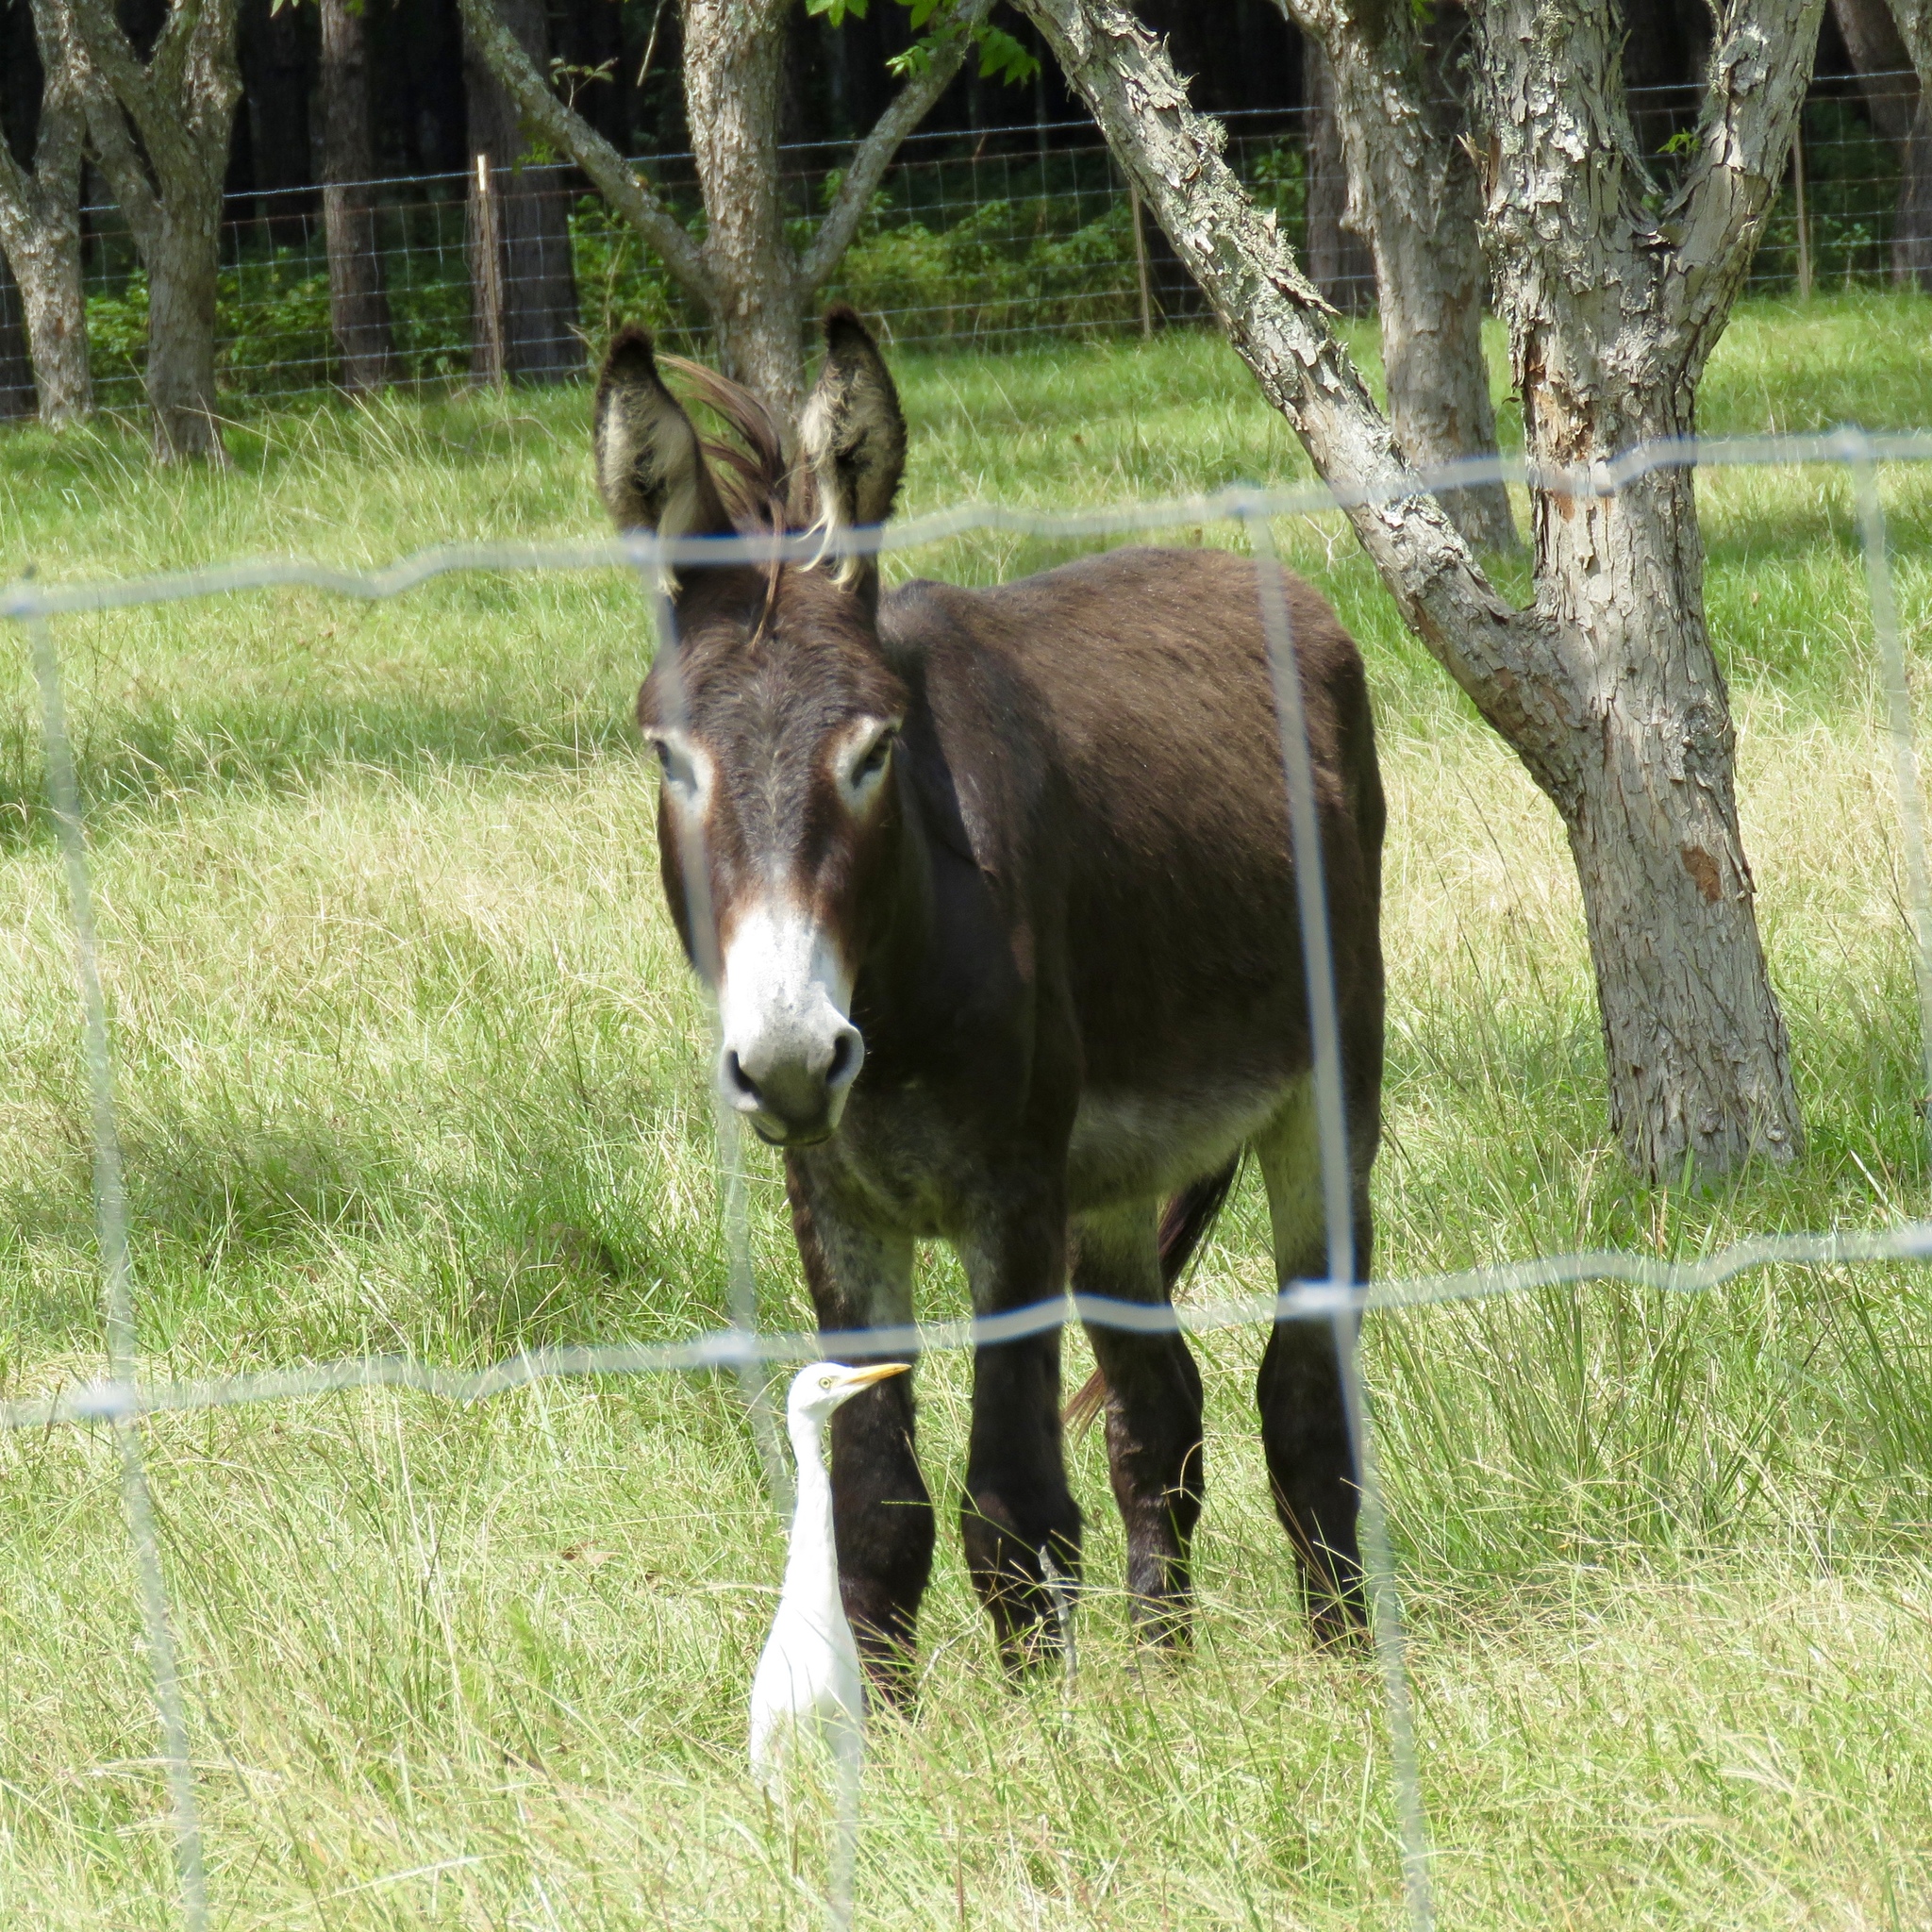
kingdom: Animalia
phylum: Chordata
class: Aves
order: Pelecaniformes
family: Ardeidae
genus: Bubulcus
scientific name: Bubulcus ibis
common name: Cattle egret
